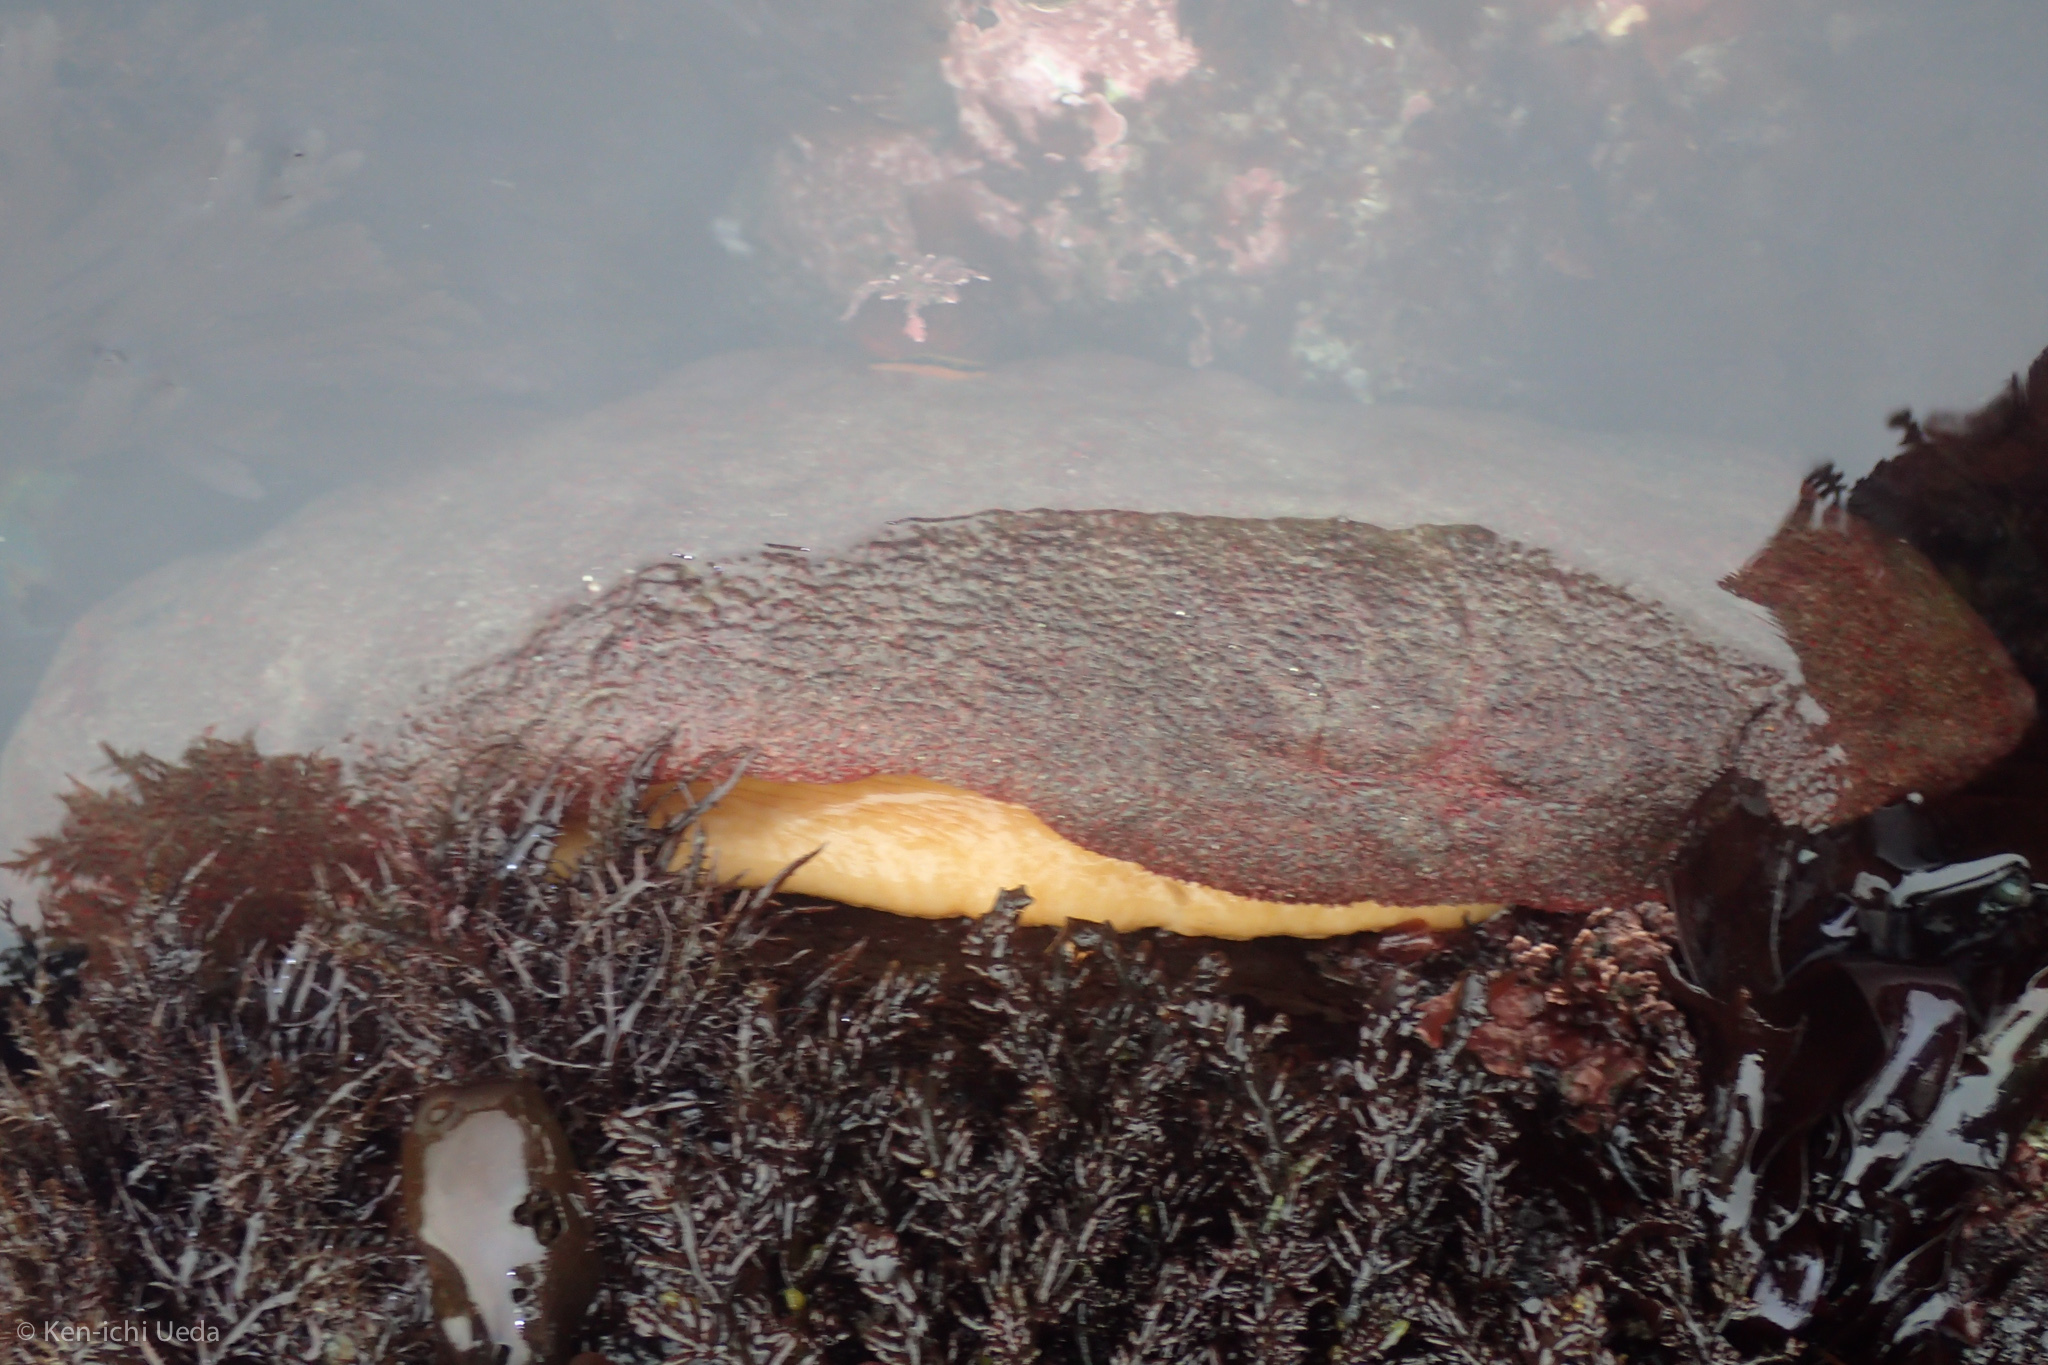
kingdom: Animalia
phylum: Mollusca
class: Polyplacophora
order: Chitonida
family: Acanthochitonidae
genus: Cryptochiton
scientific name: Cryptochiton stelleri
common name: Giant pacific chiton
